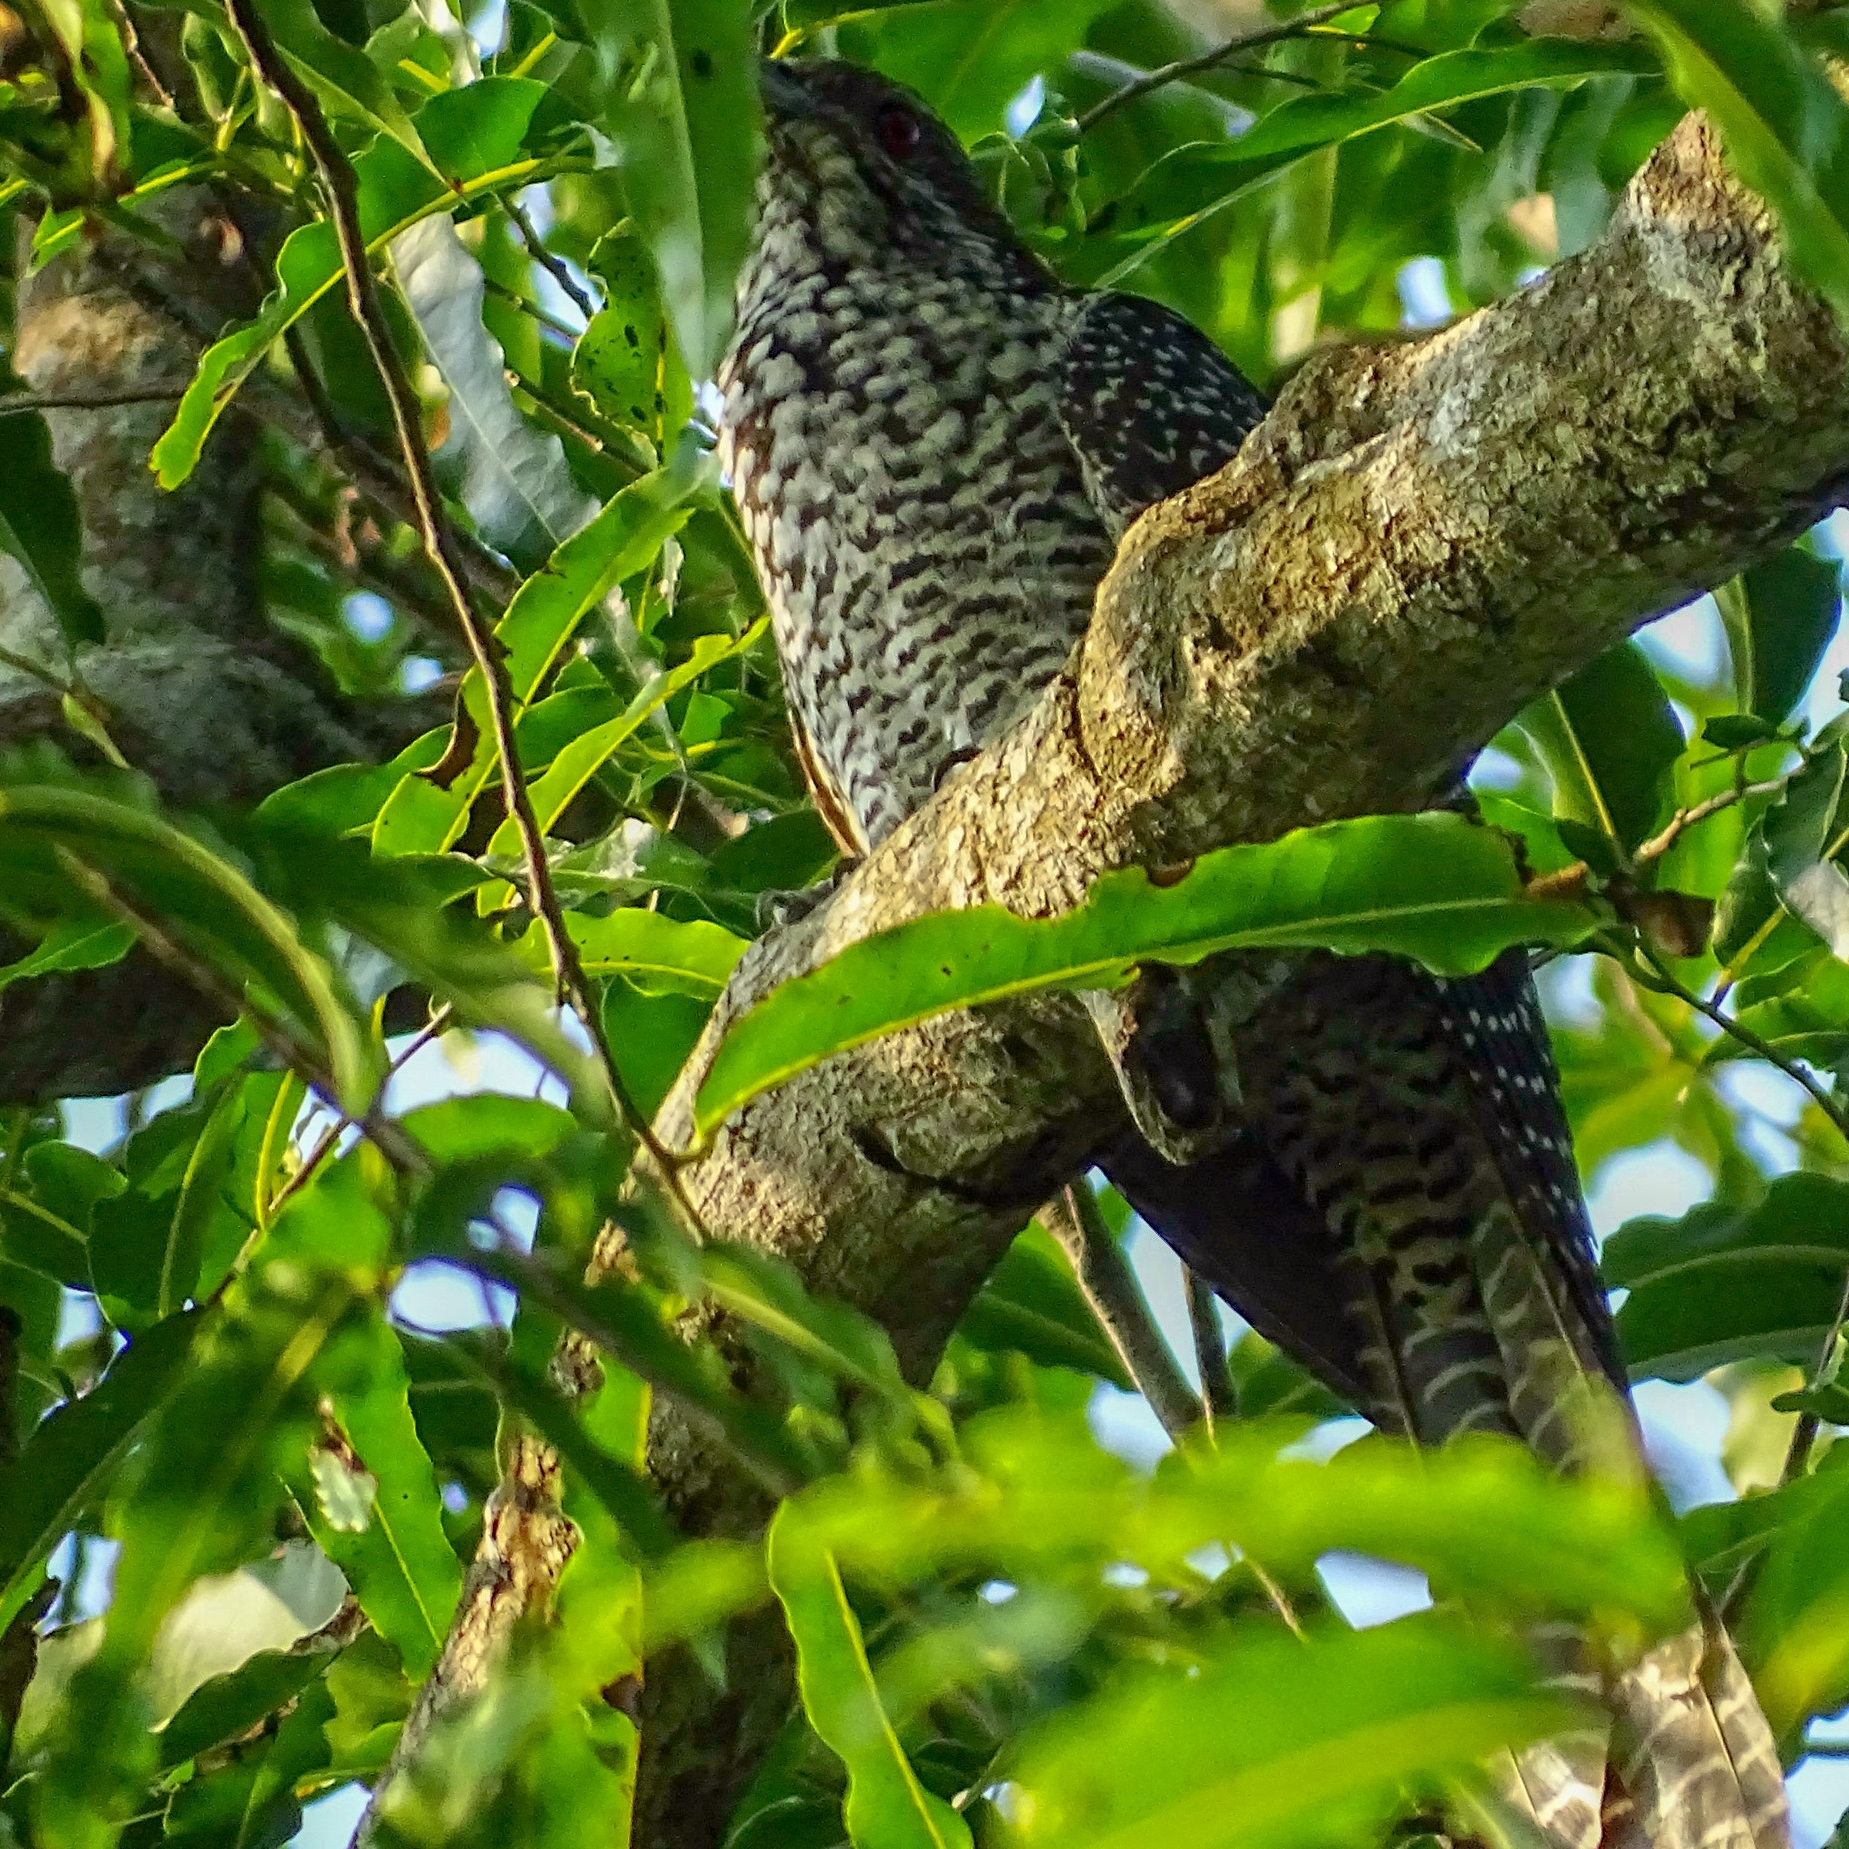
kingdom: Animalia
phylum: Chordata
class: Aves
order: Cuculiformes
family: Cuculidae
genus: Eudynamys
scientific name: Eudynamys scolopaceus
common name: Asian koel
